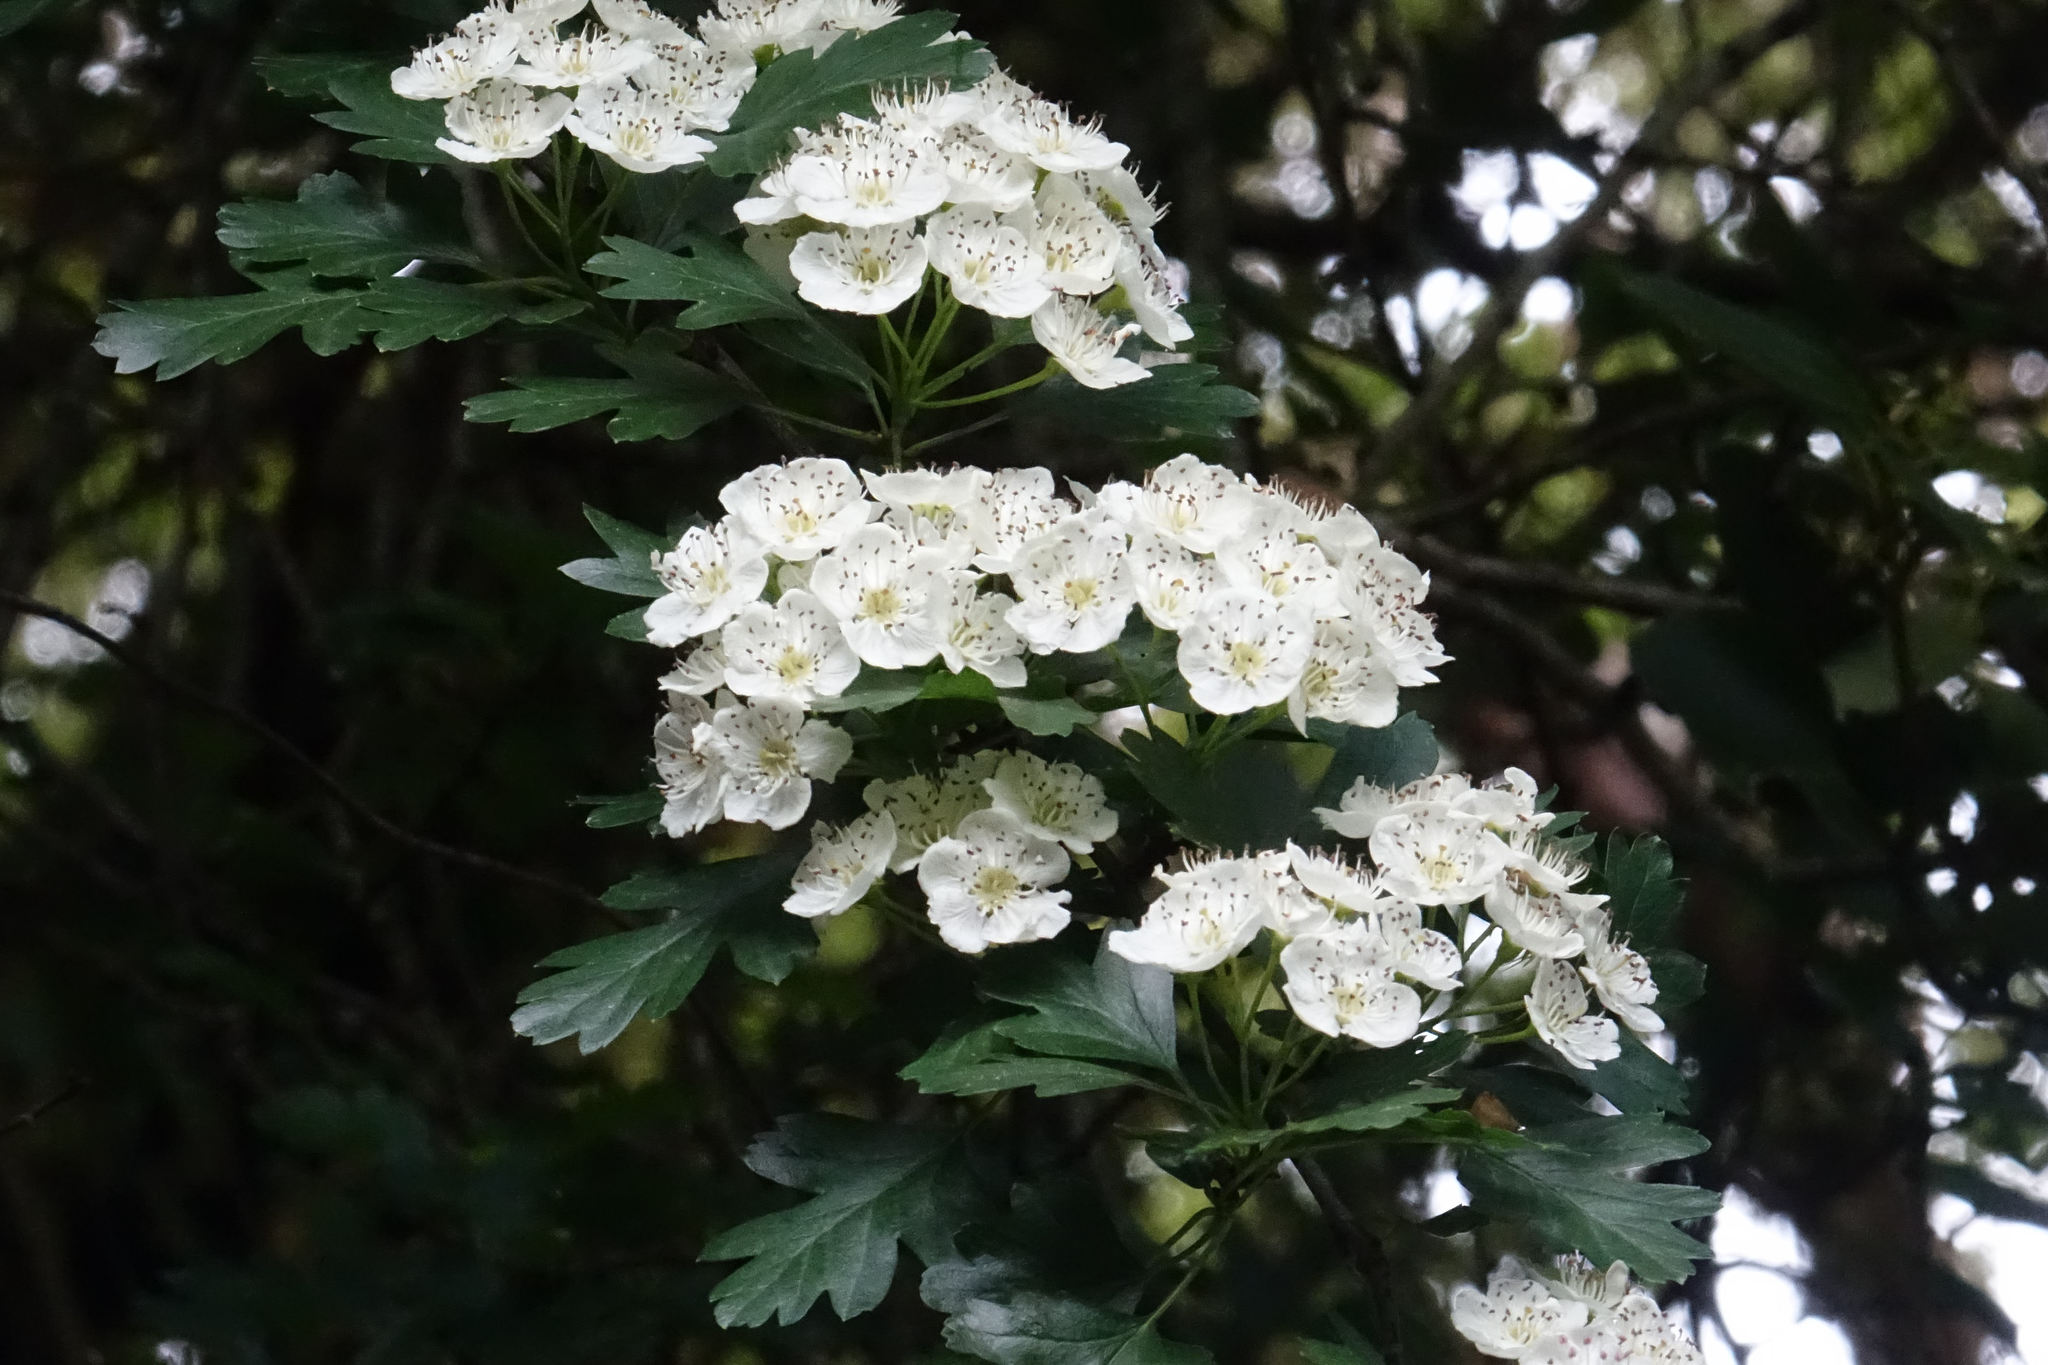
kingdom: Plantae
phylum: Tracheophyta
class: Magnoliopsida
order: Rosales
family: Rosaceae
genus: Crataegus
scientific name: Crataegus monogyna
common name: Hawthorn
